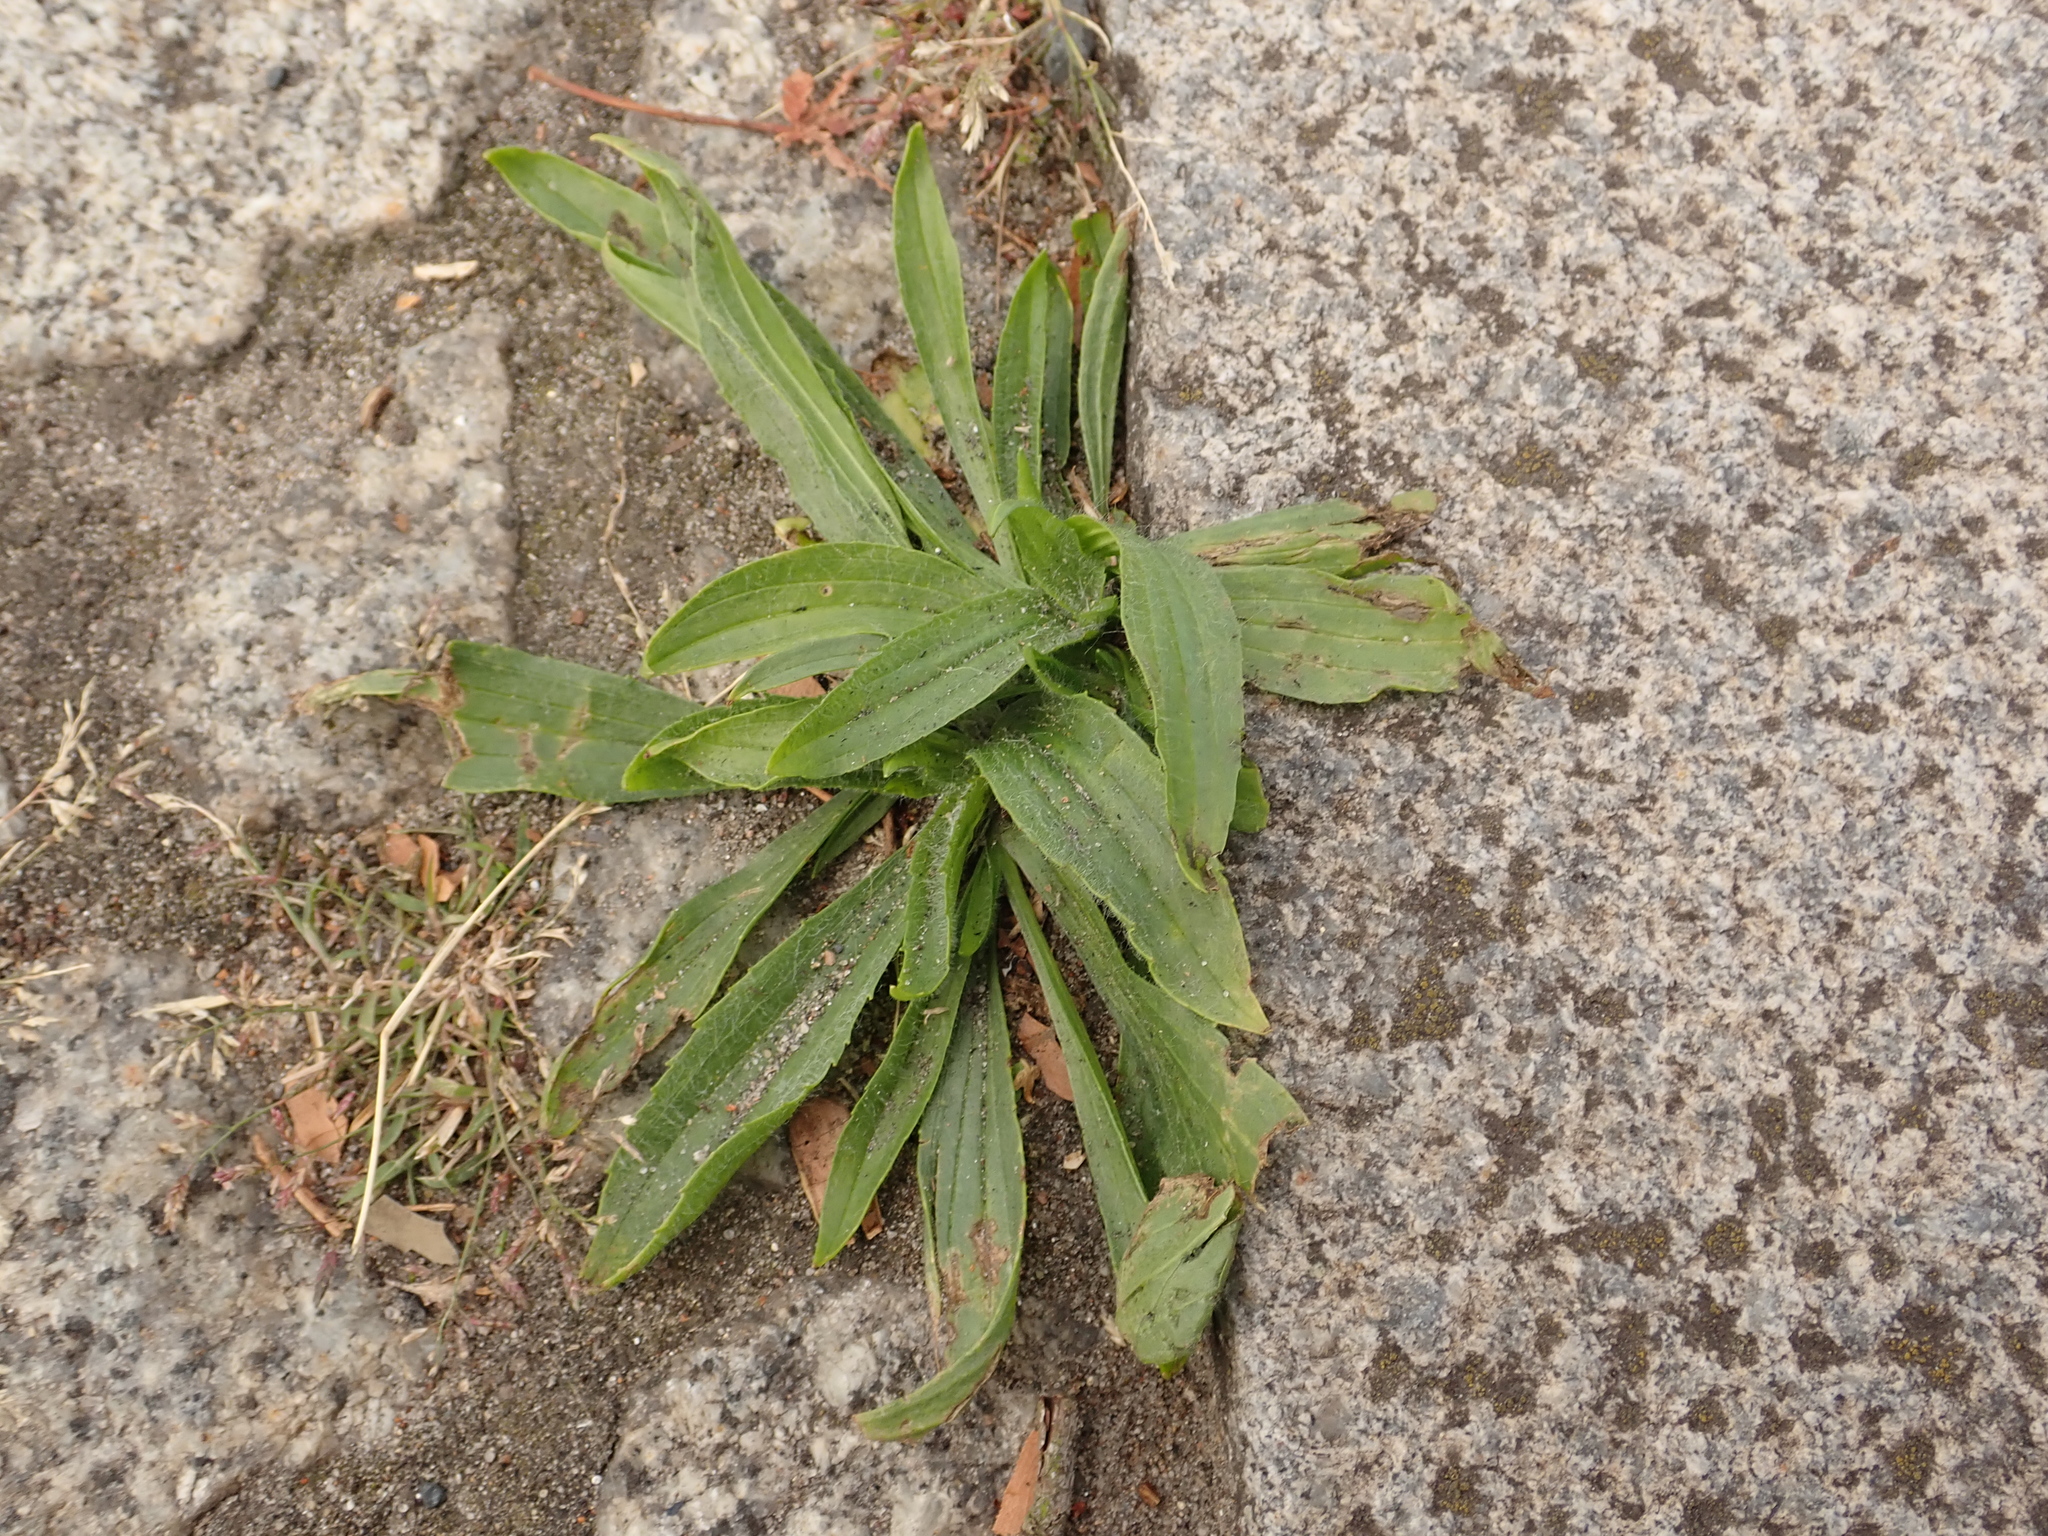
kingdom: Plantae
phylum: Tracheophyta
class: Magnoliopsida
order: Lamiales
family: Plantaginaceae
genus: Plantago
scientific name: Plantago lanceolata
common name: Ribwort plantain
